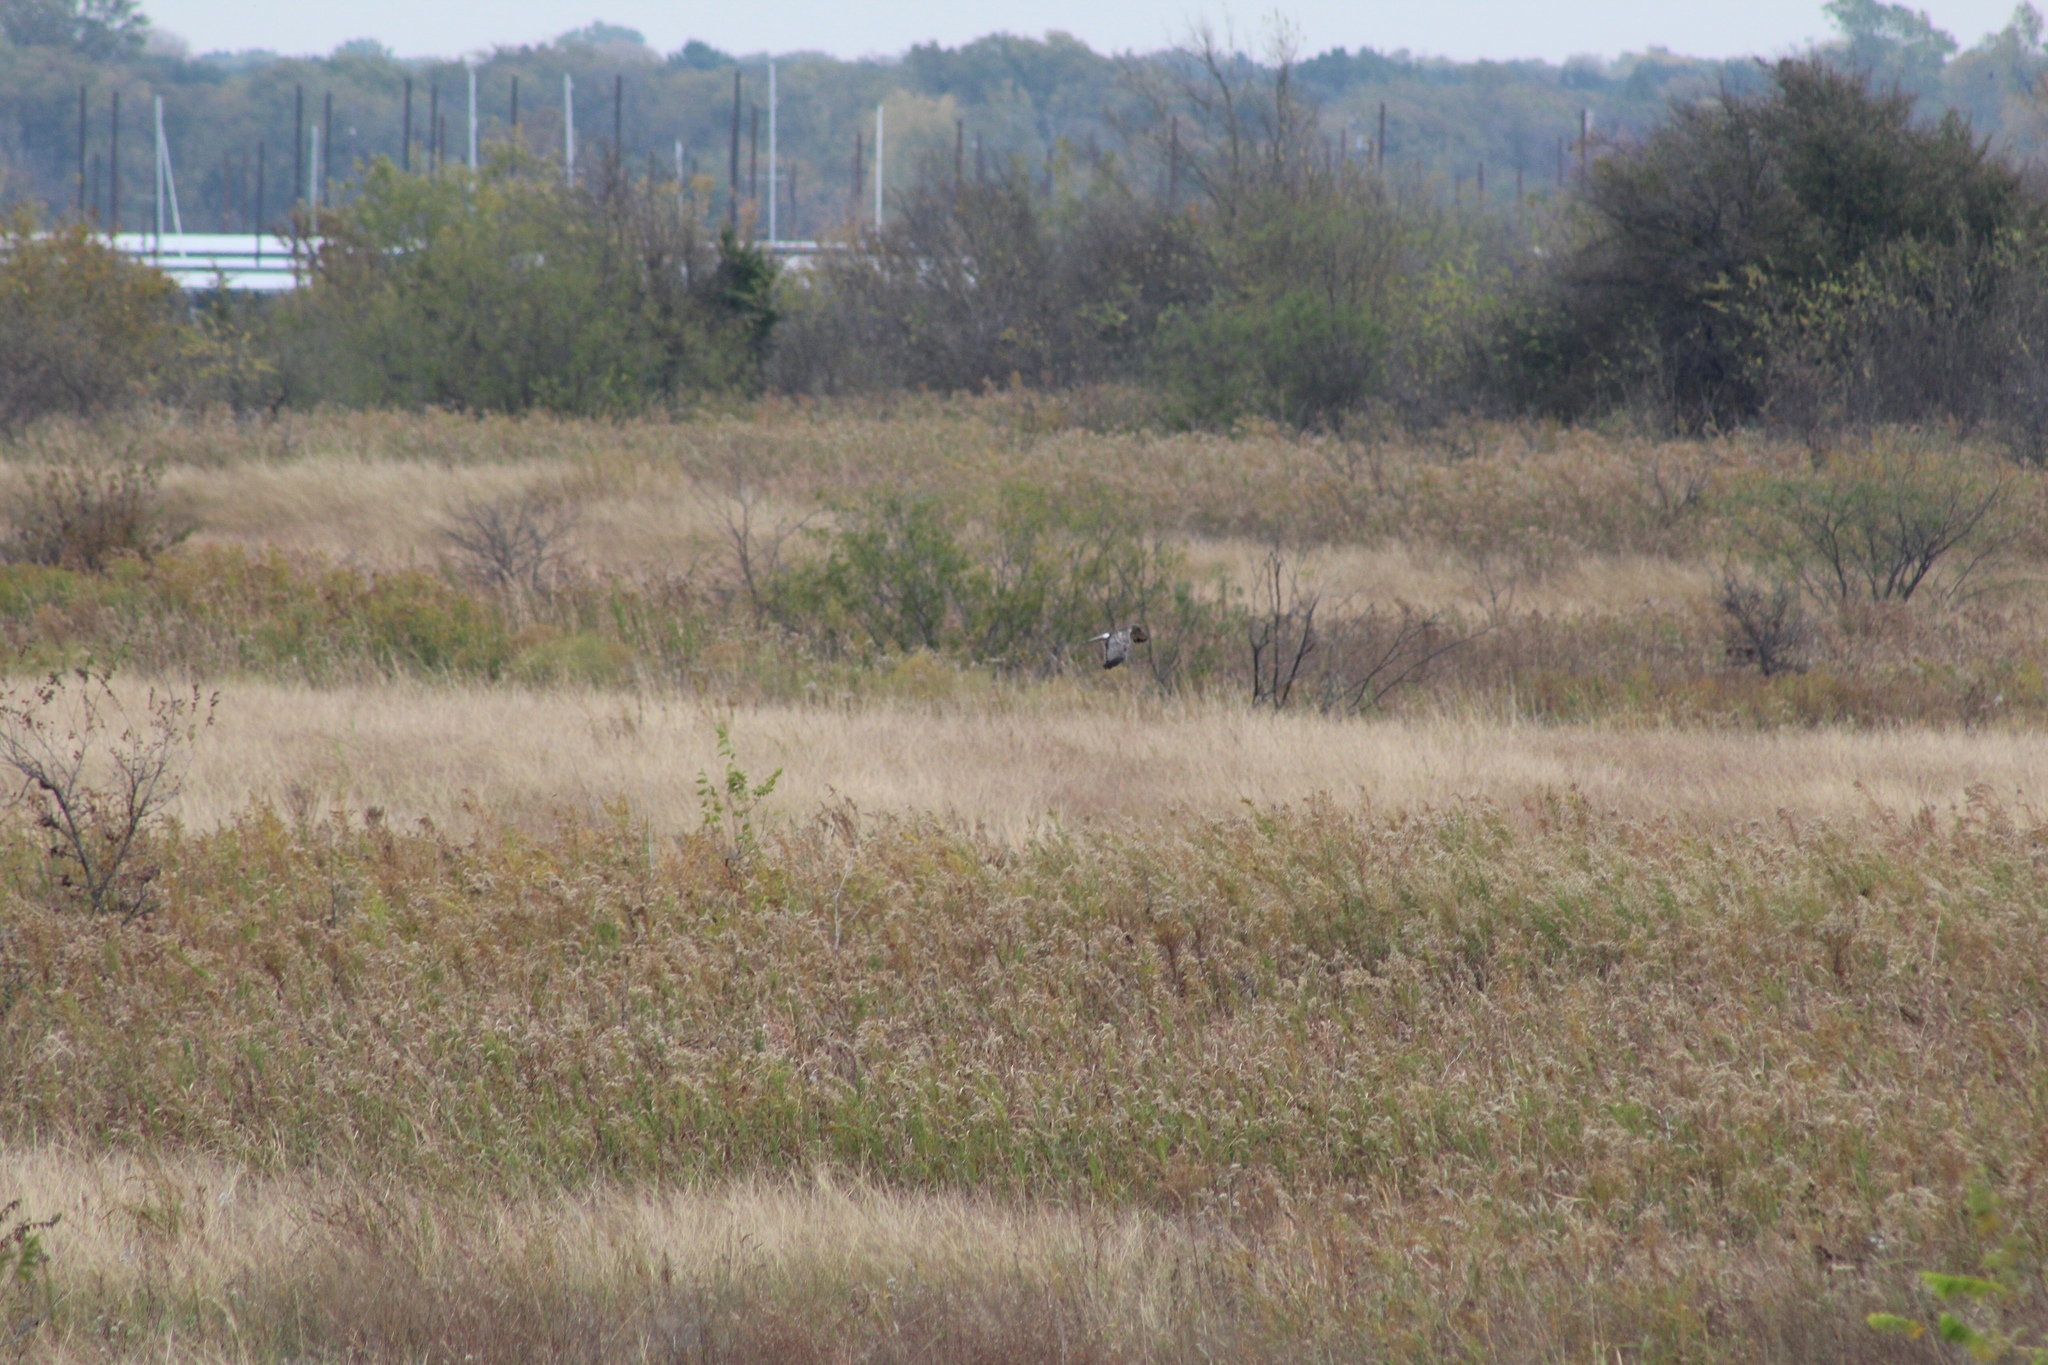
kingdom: Animalia
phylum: Chordata
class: Aves
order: Accipitriformes
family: Accipitridae
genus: Circus
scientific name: Circus cyaneus
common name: Hen harrier
